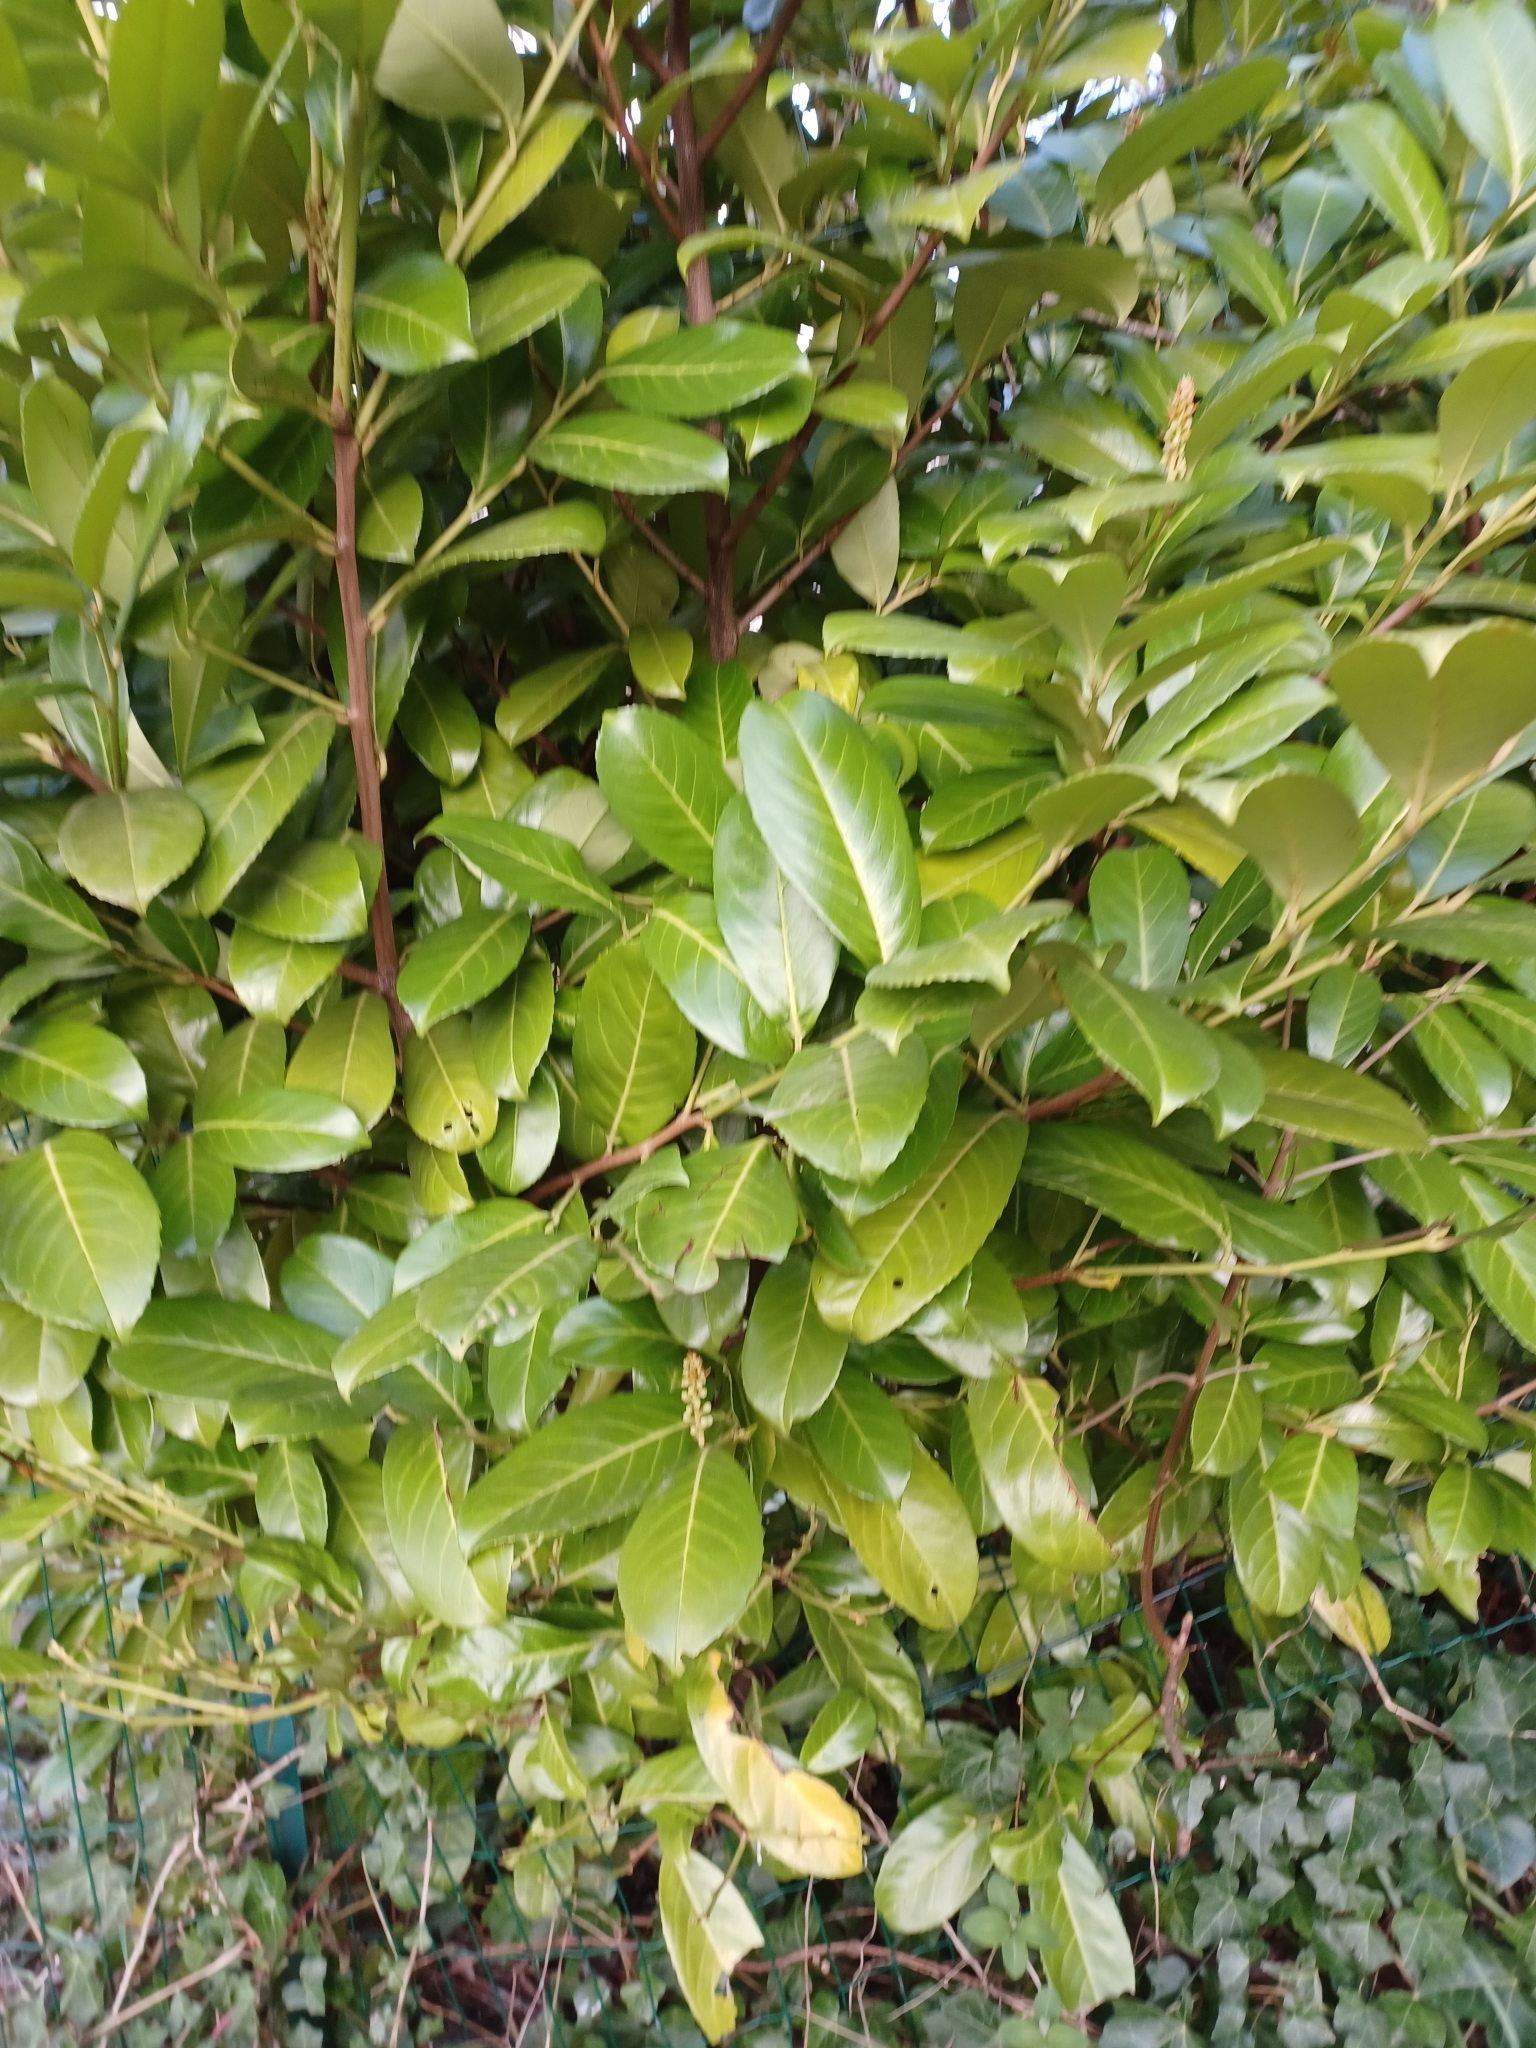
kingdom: Plantae
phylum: Tracheophyta
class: Magnoliopsida
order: Rosales
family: Rosaceae
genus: Prunus
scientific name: Prunus laurocerasus
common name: Cherry laurel
